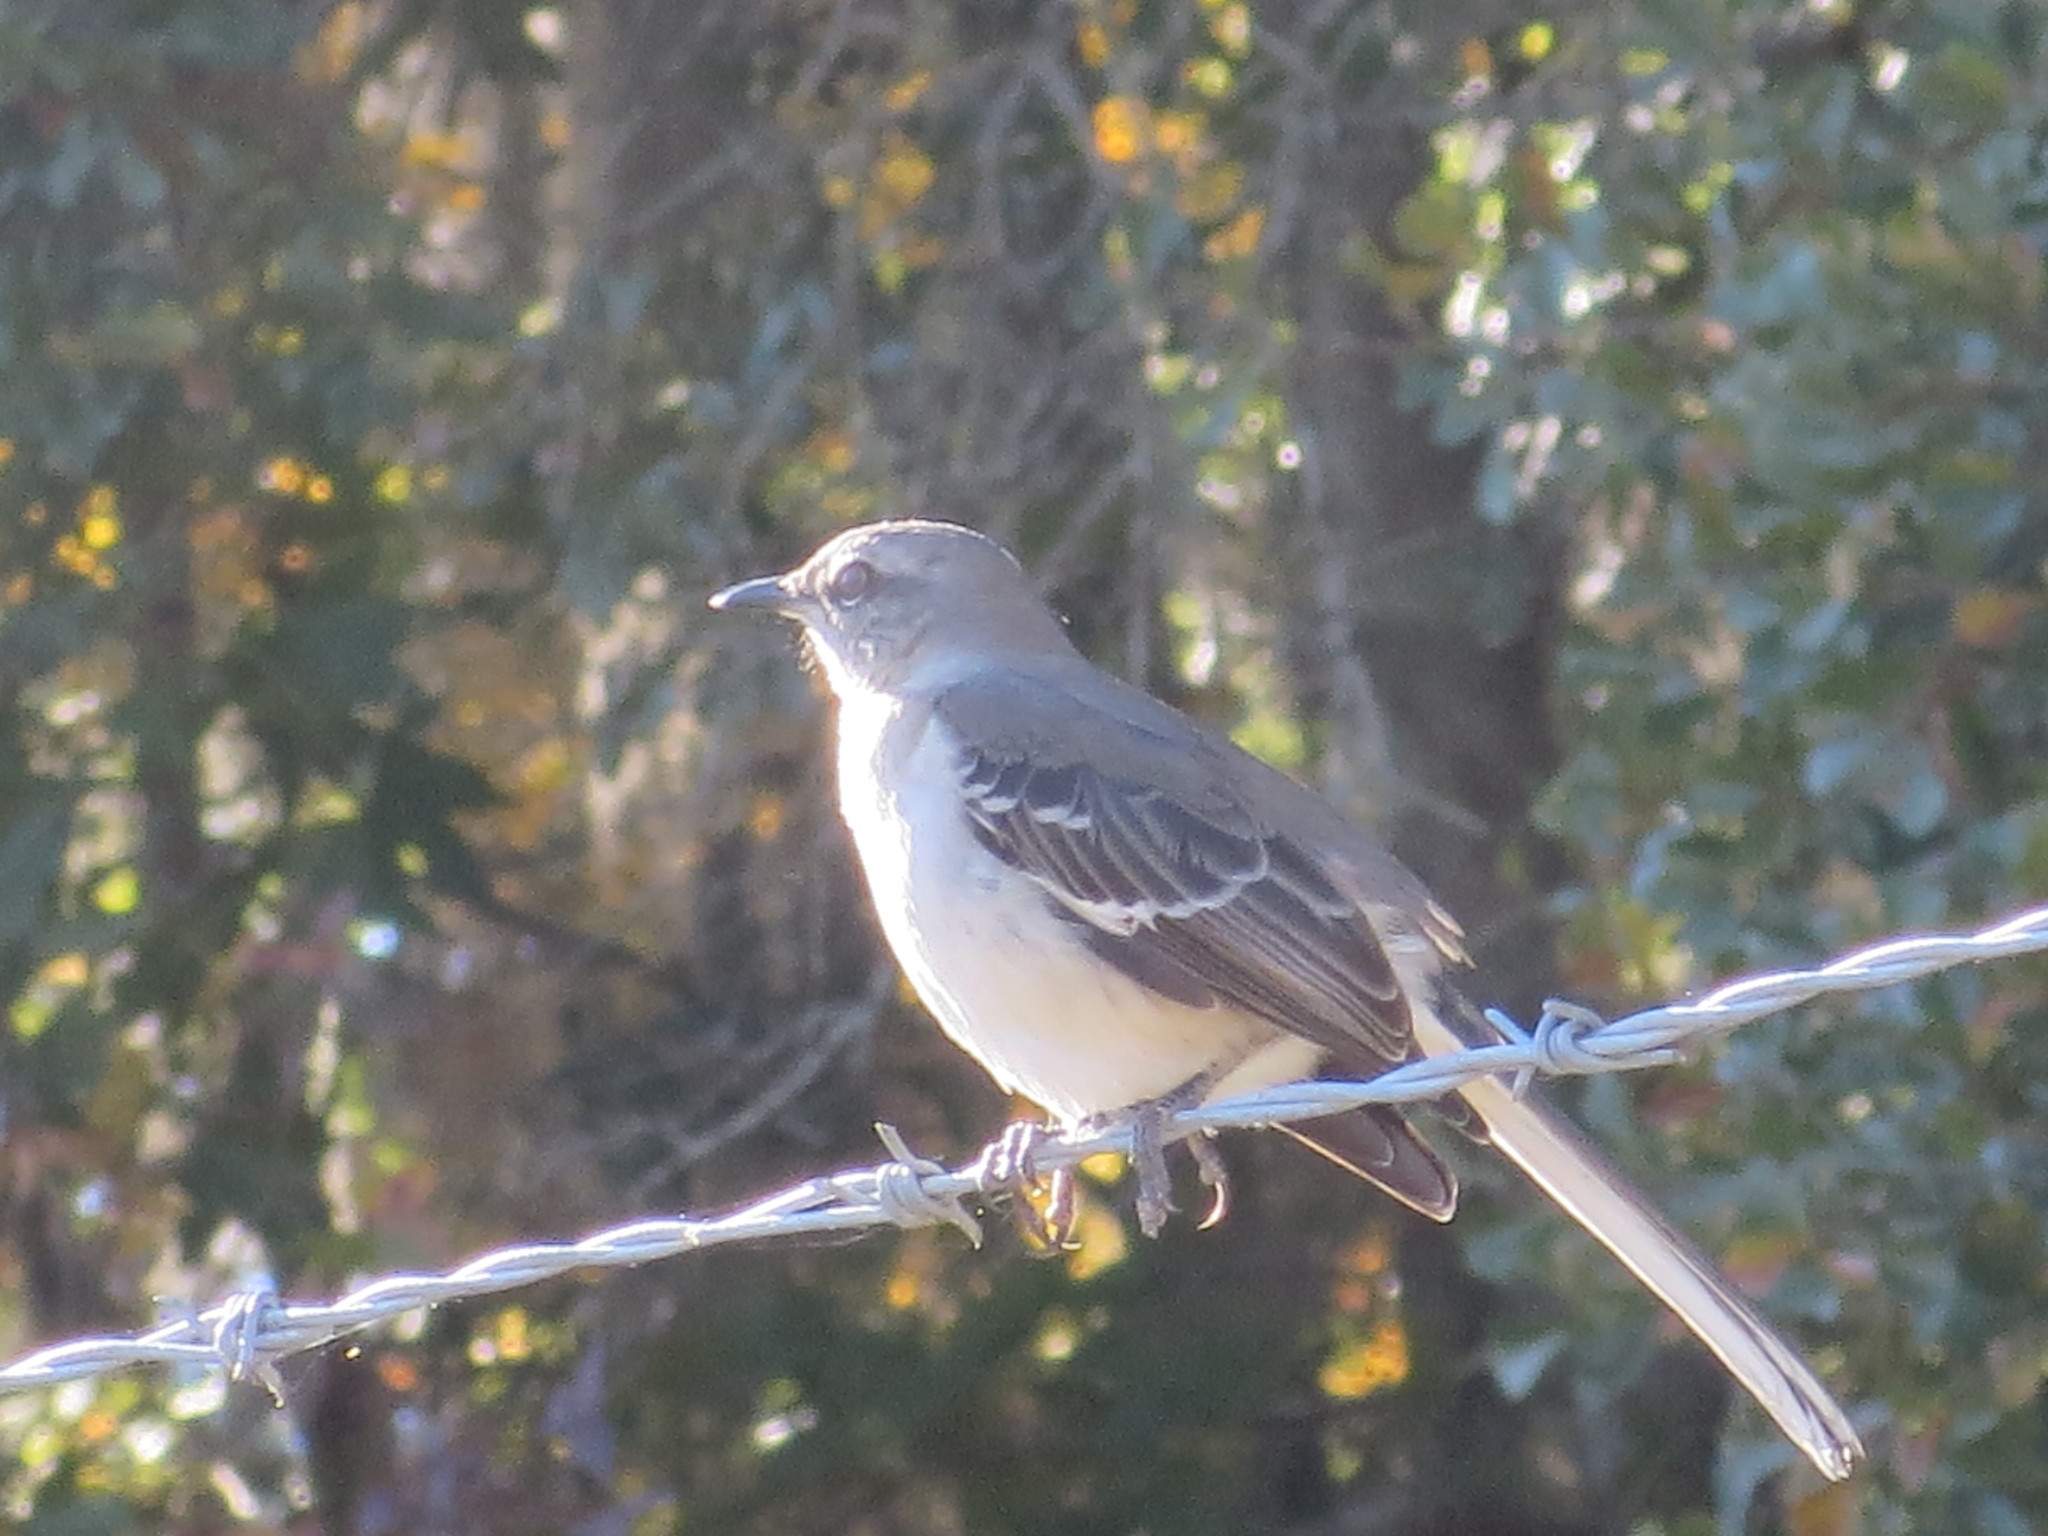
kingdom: Animalia
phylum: Chordata
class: Aves
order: Passeriformes
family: Mimidae
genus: Mimus
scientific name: Mimus polyglottos
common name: Northern mockingbird
